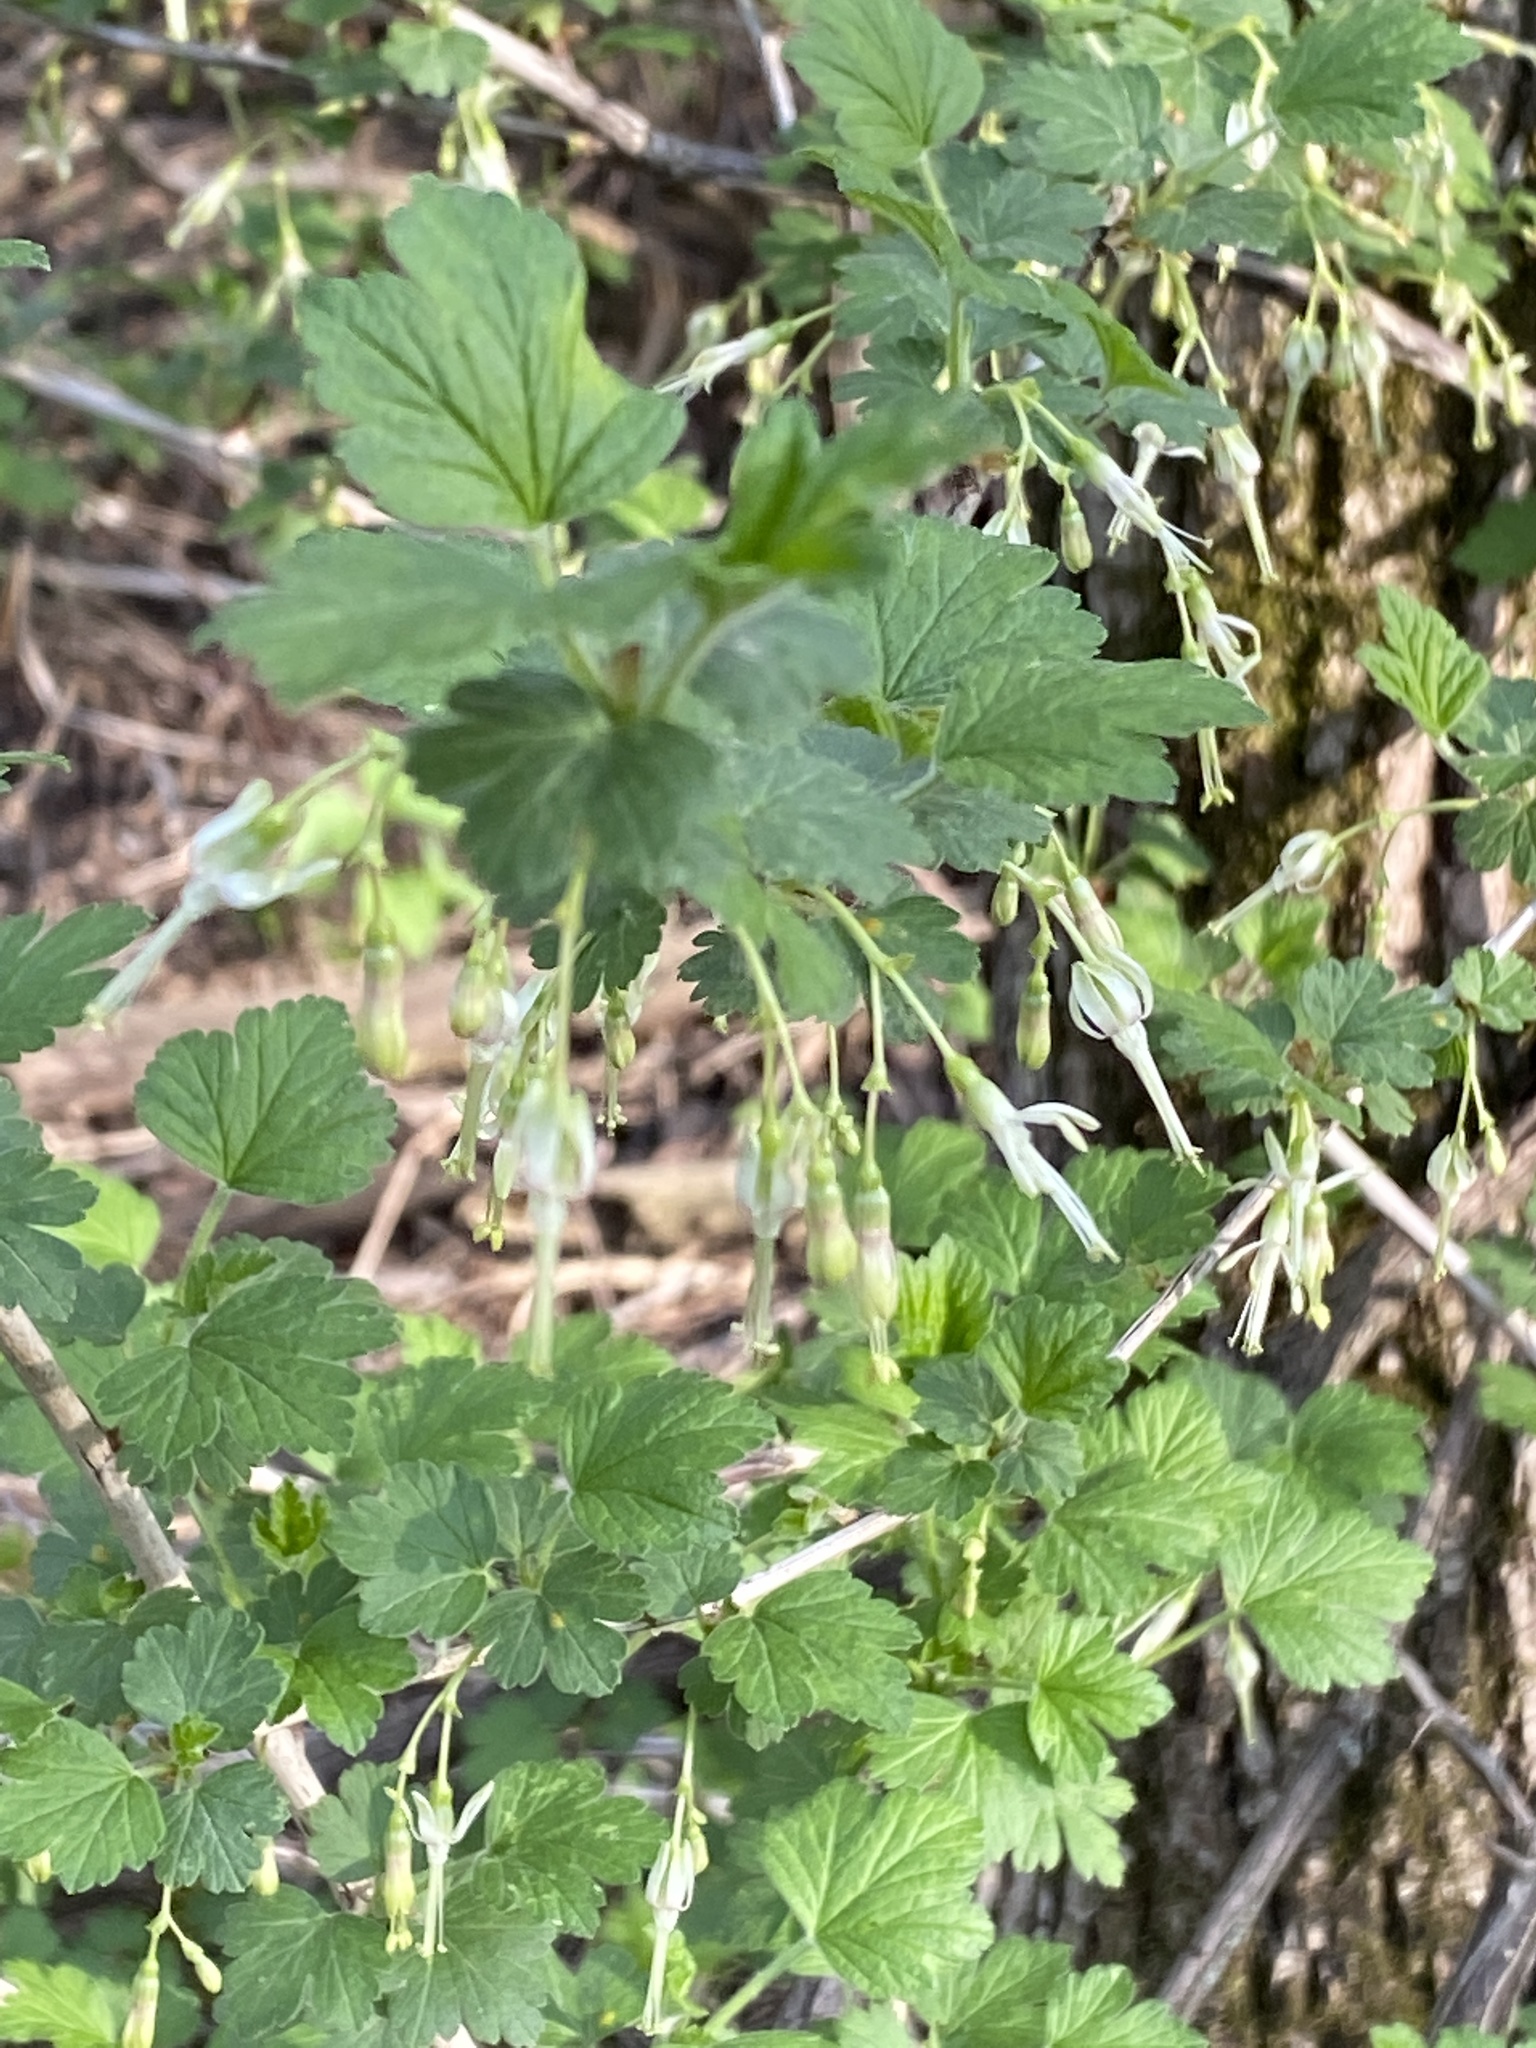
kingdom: Plantae
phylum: Tracheophyta
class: Magnoliopsida
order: Saxifragales
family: Grossulariaceae
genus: Ribes
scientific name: Ribes missouriense
